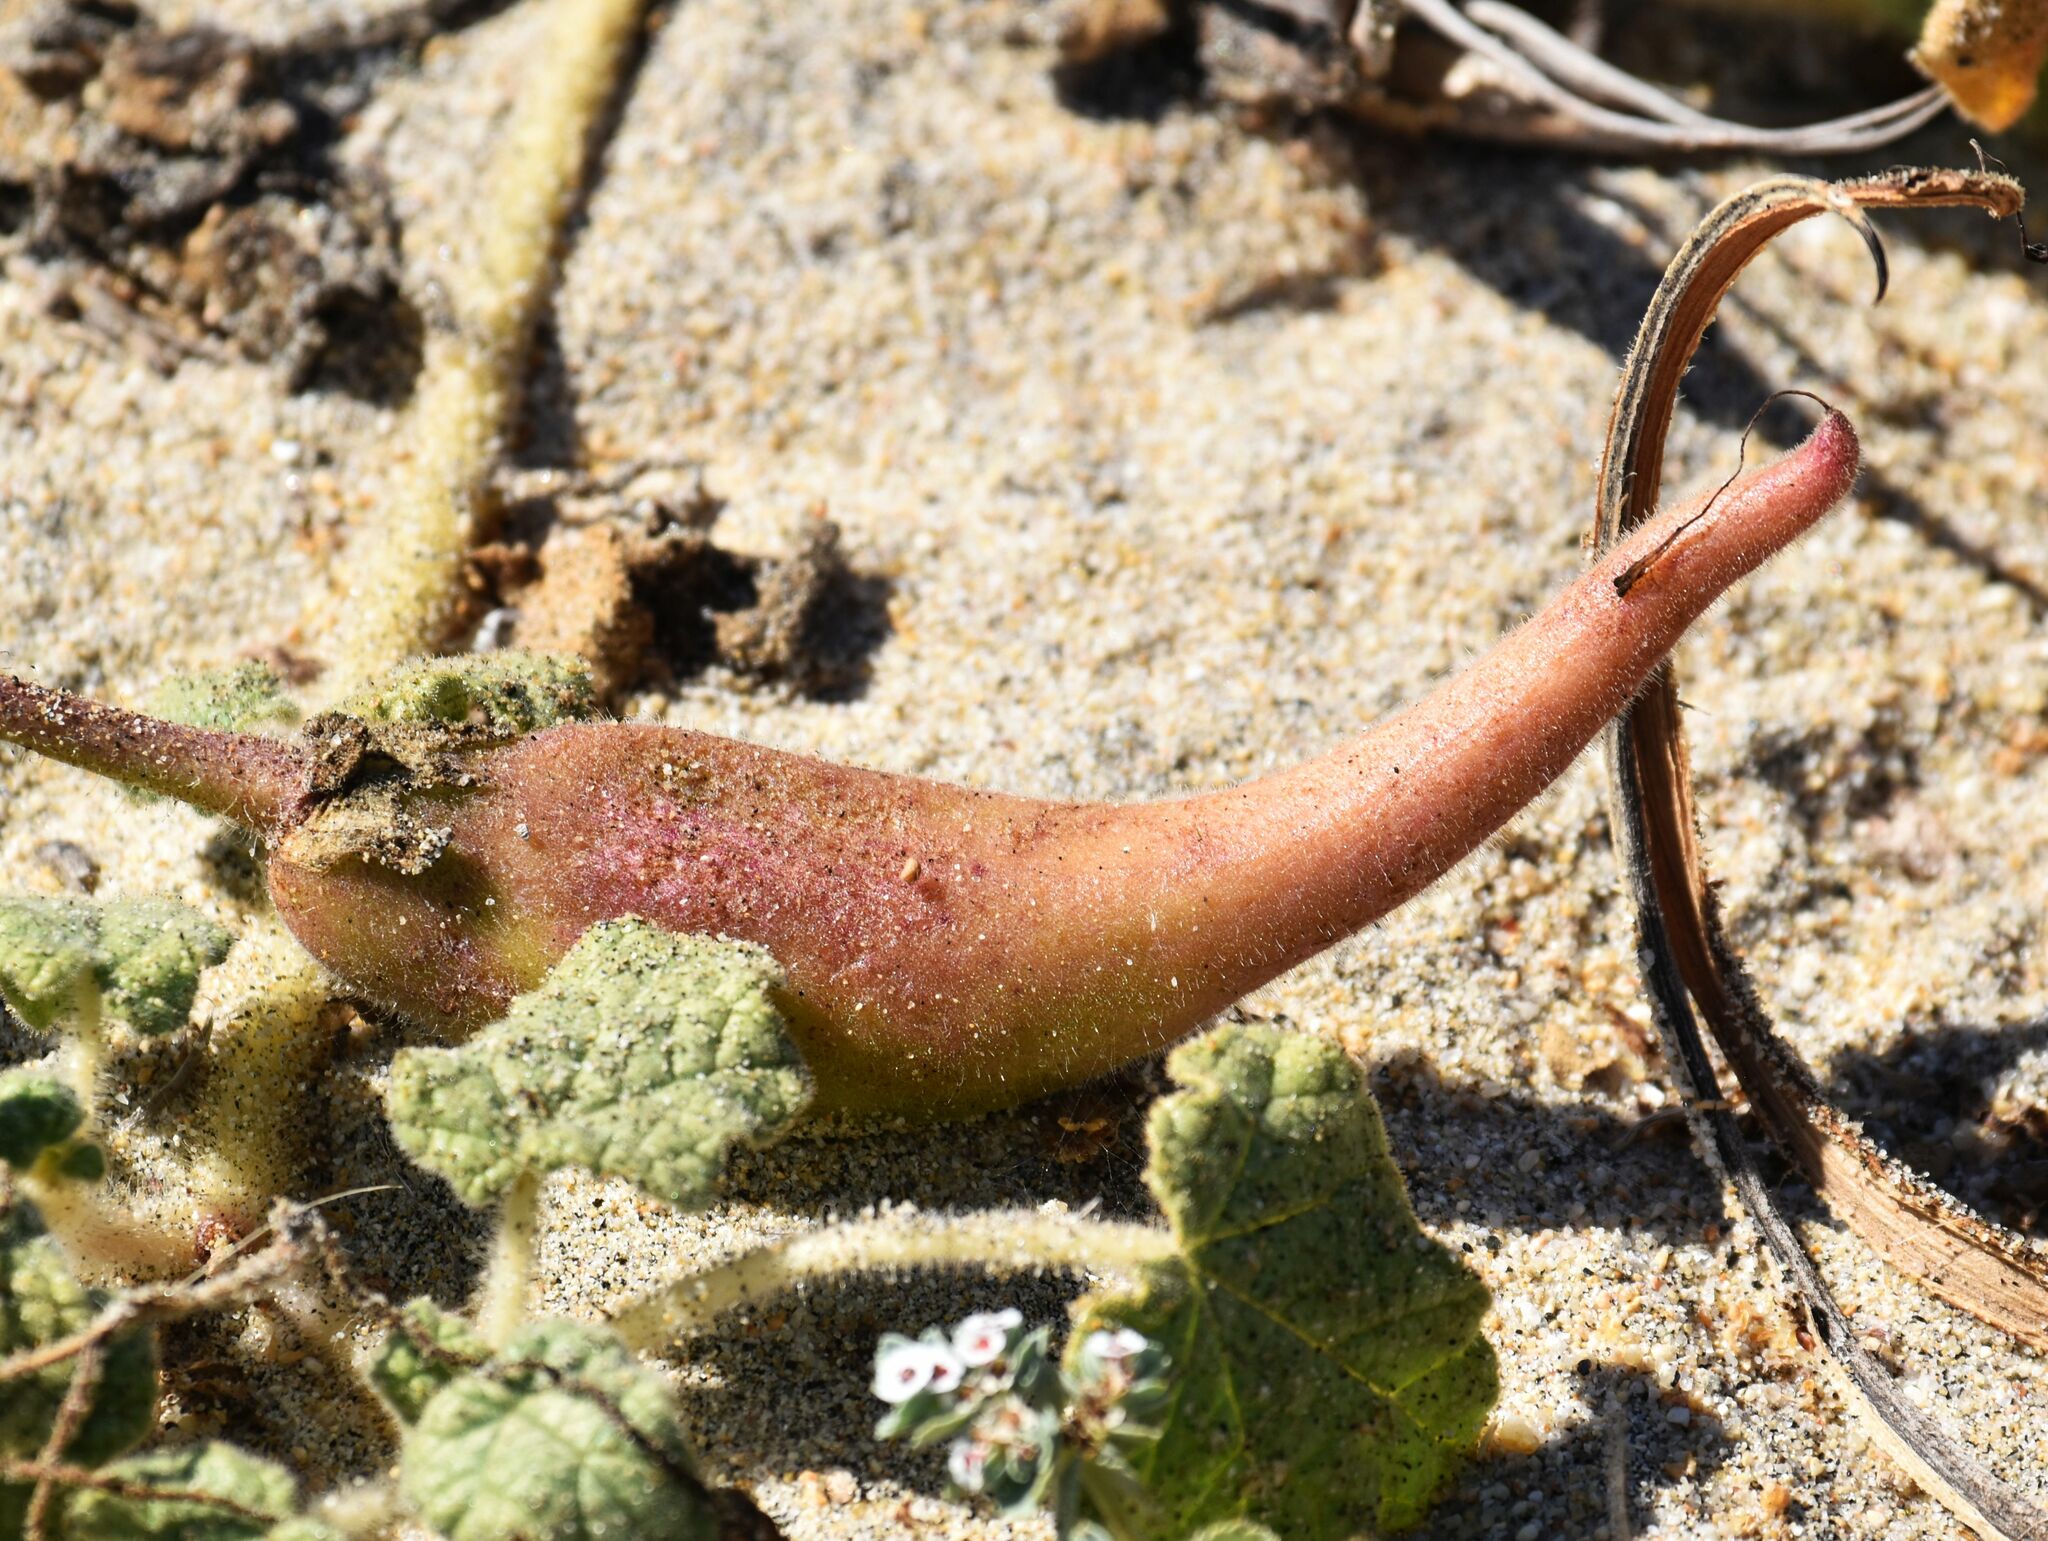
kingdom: Plantae
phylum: Tracheophyta
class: Magnoliopsida
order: Lamiales
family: Martyniaceae
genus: Proboscidea
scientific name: Proboscidea althaeifolia
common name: Desert unicorn-plant
